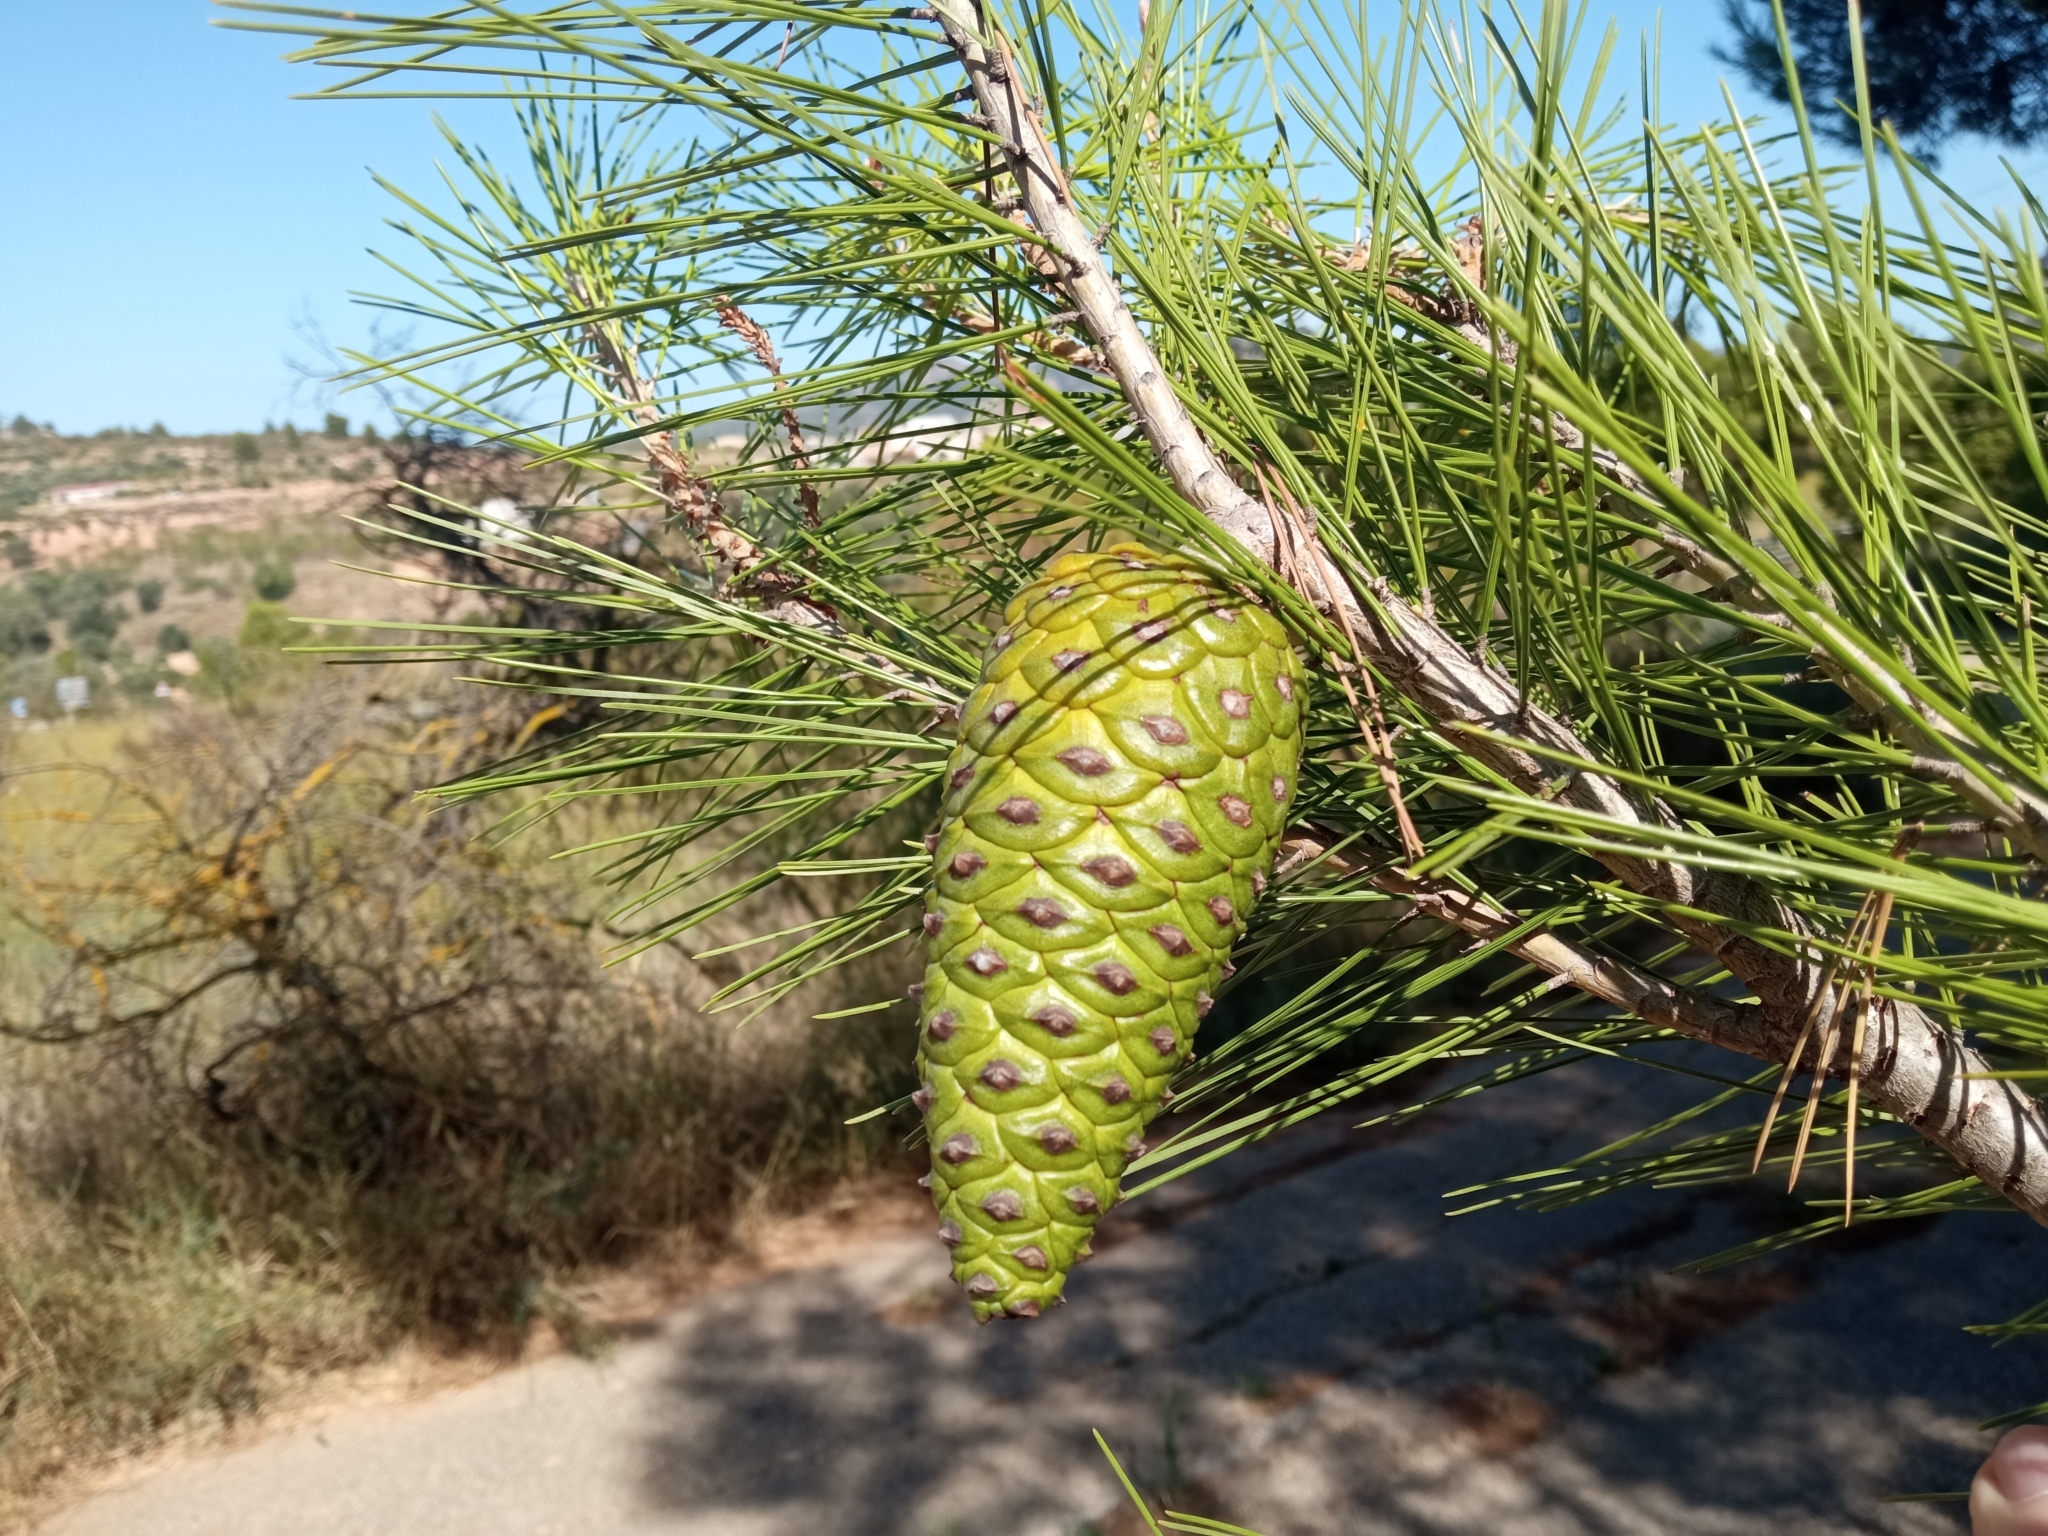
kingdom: Plantae
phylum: Tracheophyta
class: Pinopsida
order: Pinales
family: Pinaceae
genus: Pinus
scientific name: Pinus halepensis
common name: Aleppo pine
